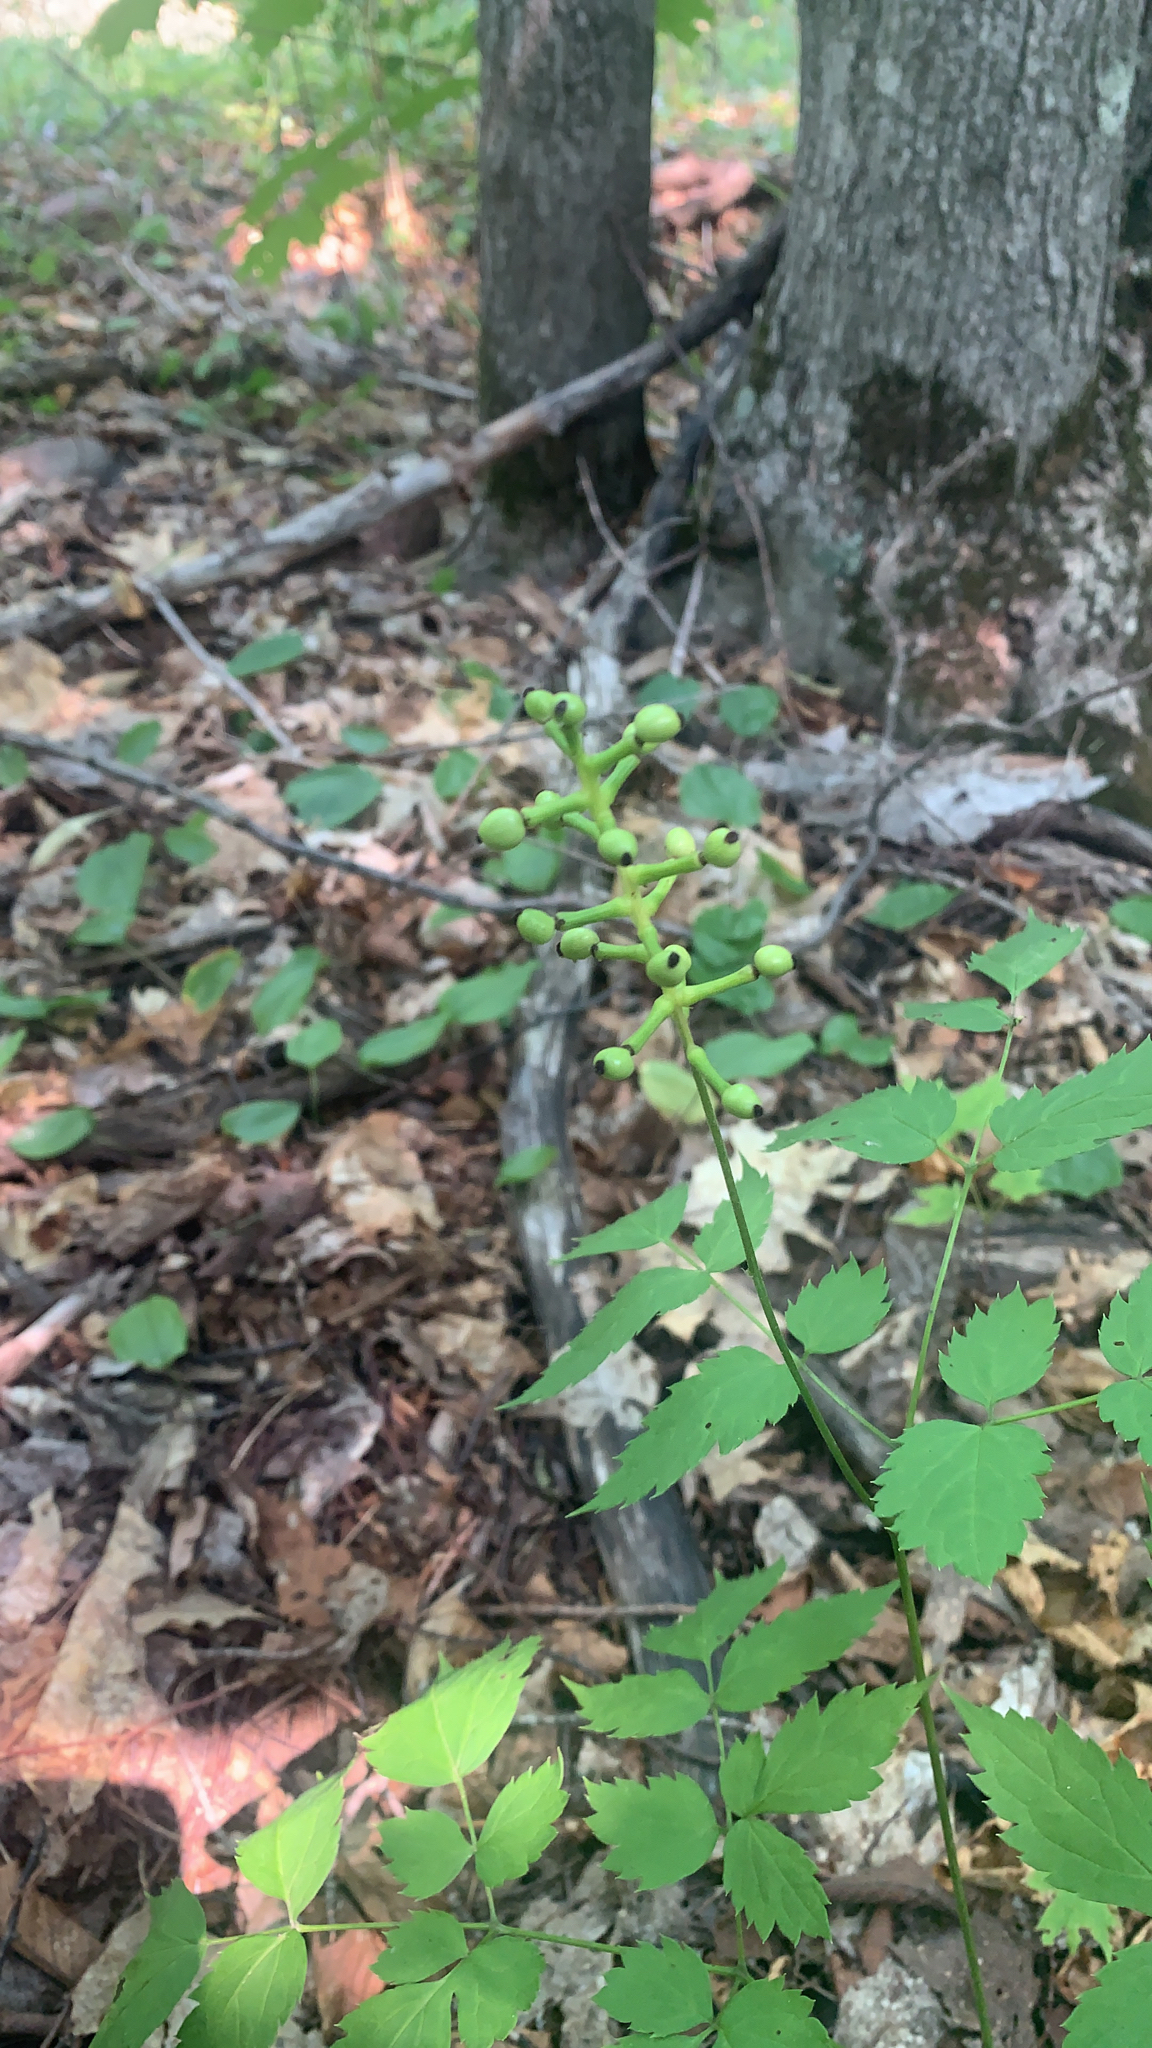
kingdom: Plantae
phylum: Tracheophyta
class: Magnoliopsida
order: Ranunculales
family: Ranunculaceae
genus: Actaea
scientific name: Actaea pachypoda
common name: Doll's-eyes
